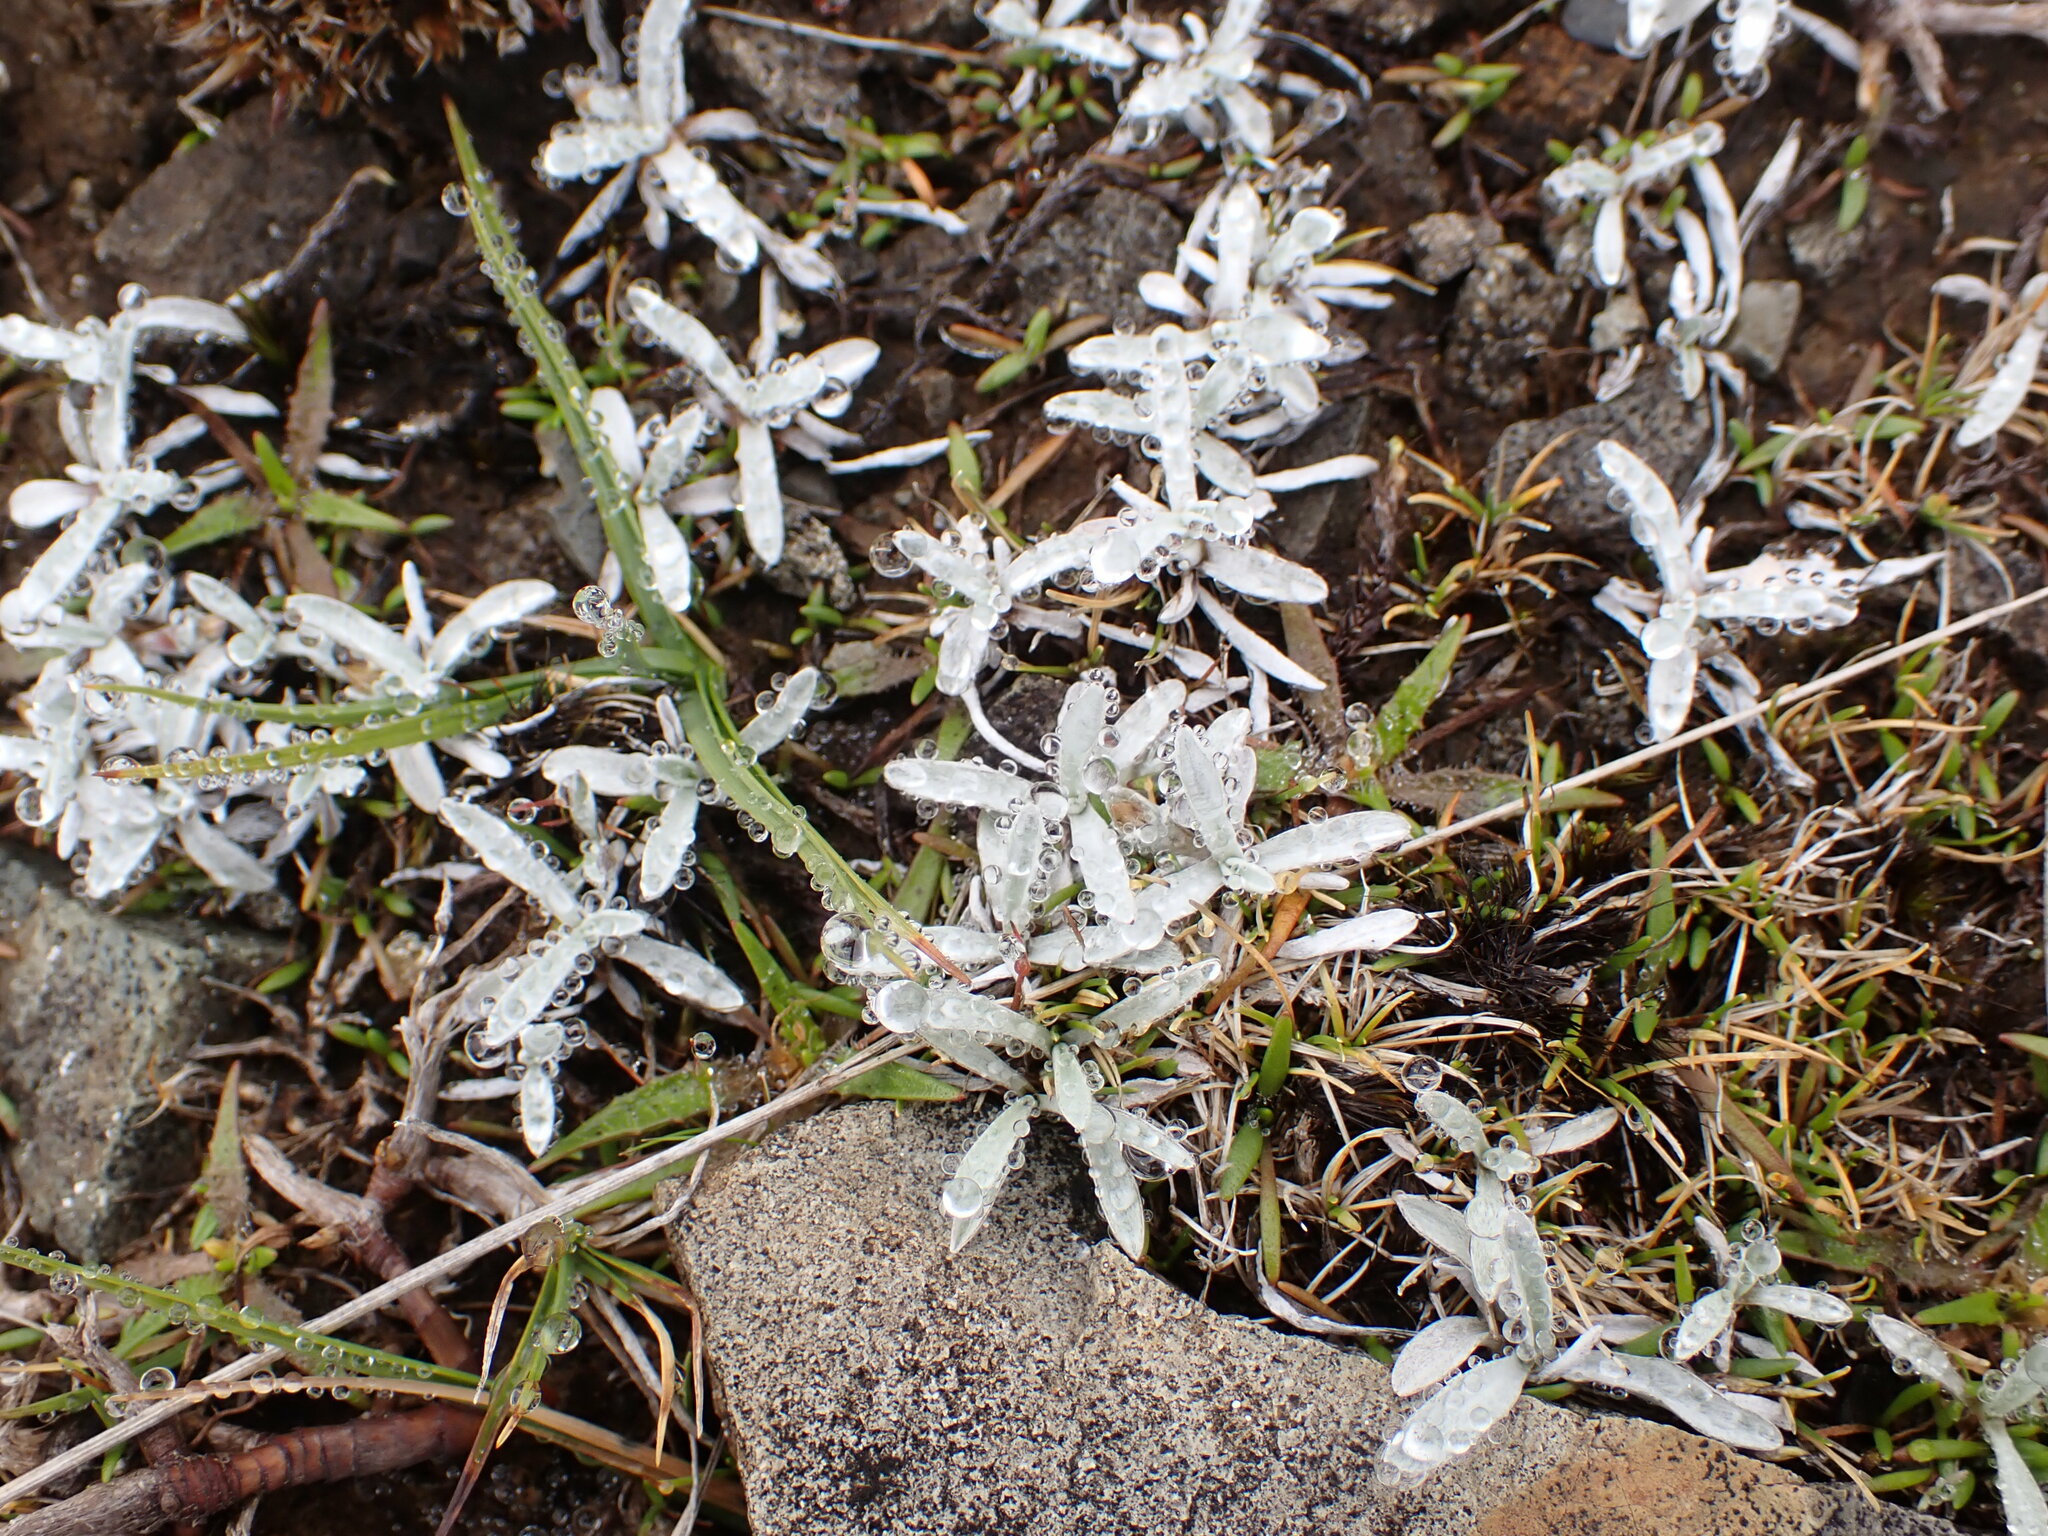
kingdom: Plantae
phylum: Tracheophyta
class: Magnoliopsida
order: Asterales
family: Asteraceae
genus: Argyrotegium
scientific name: Argyrotegium mackayi
